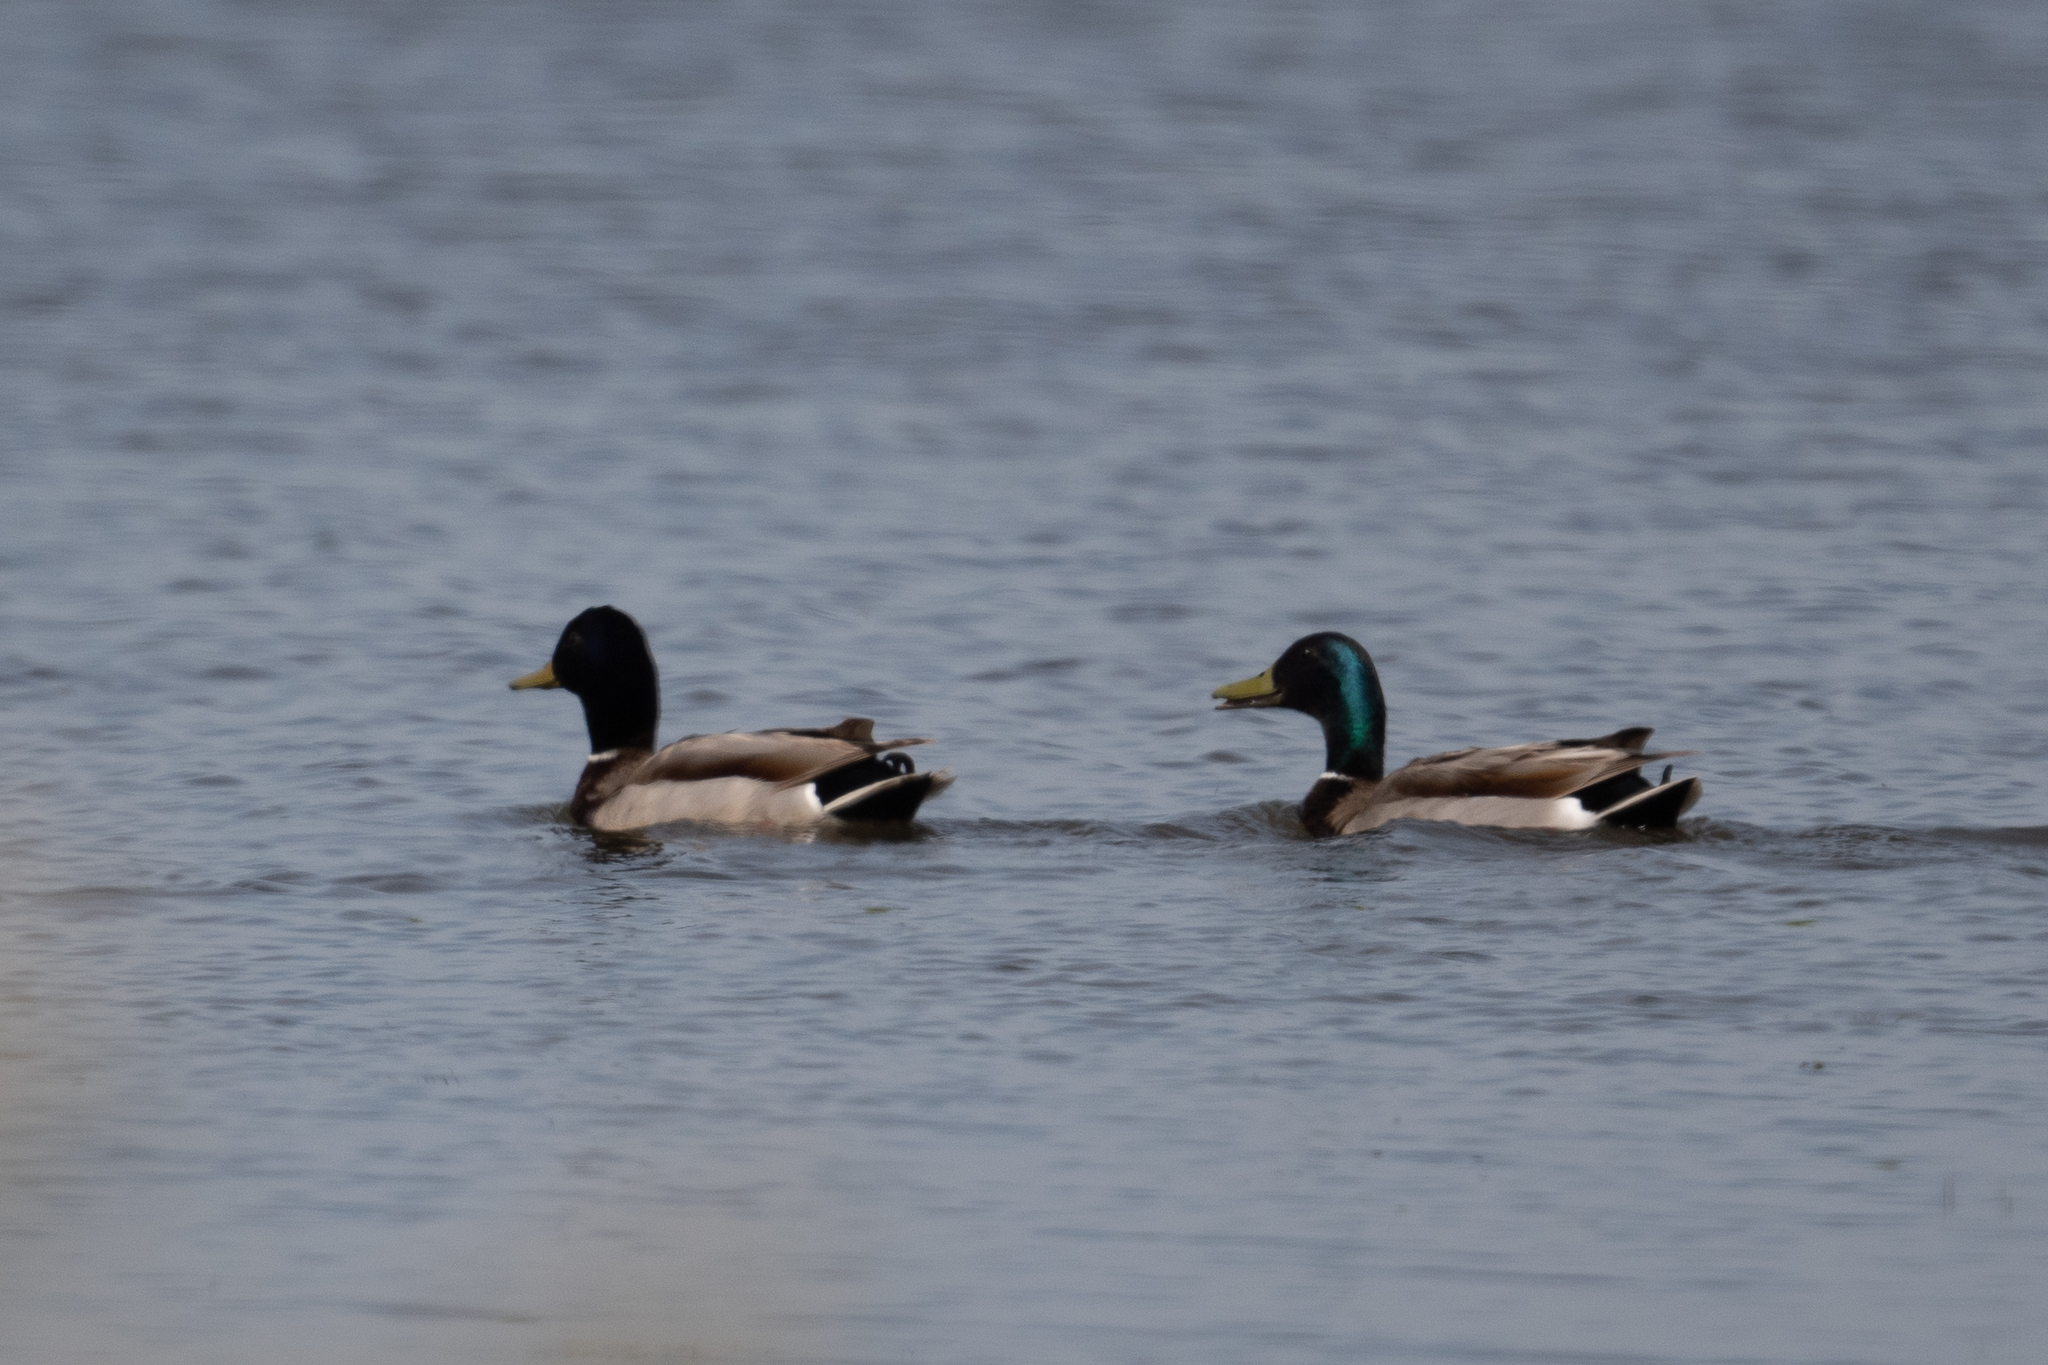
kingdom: Animalia
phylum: Chordata
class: Aves
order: Anseriformes
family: Anatidae
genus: Anas
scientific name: Anas platyrhynchos
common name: Mallard
